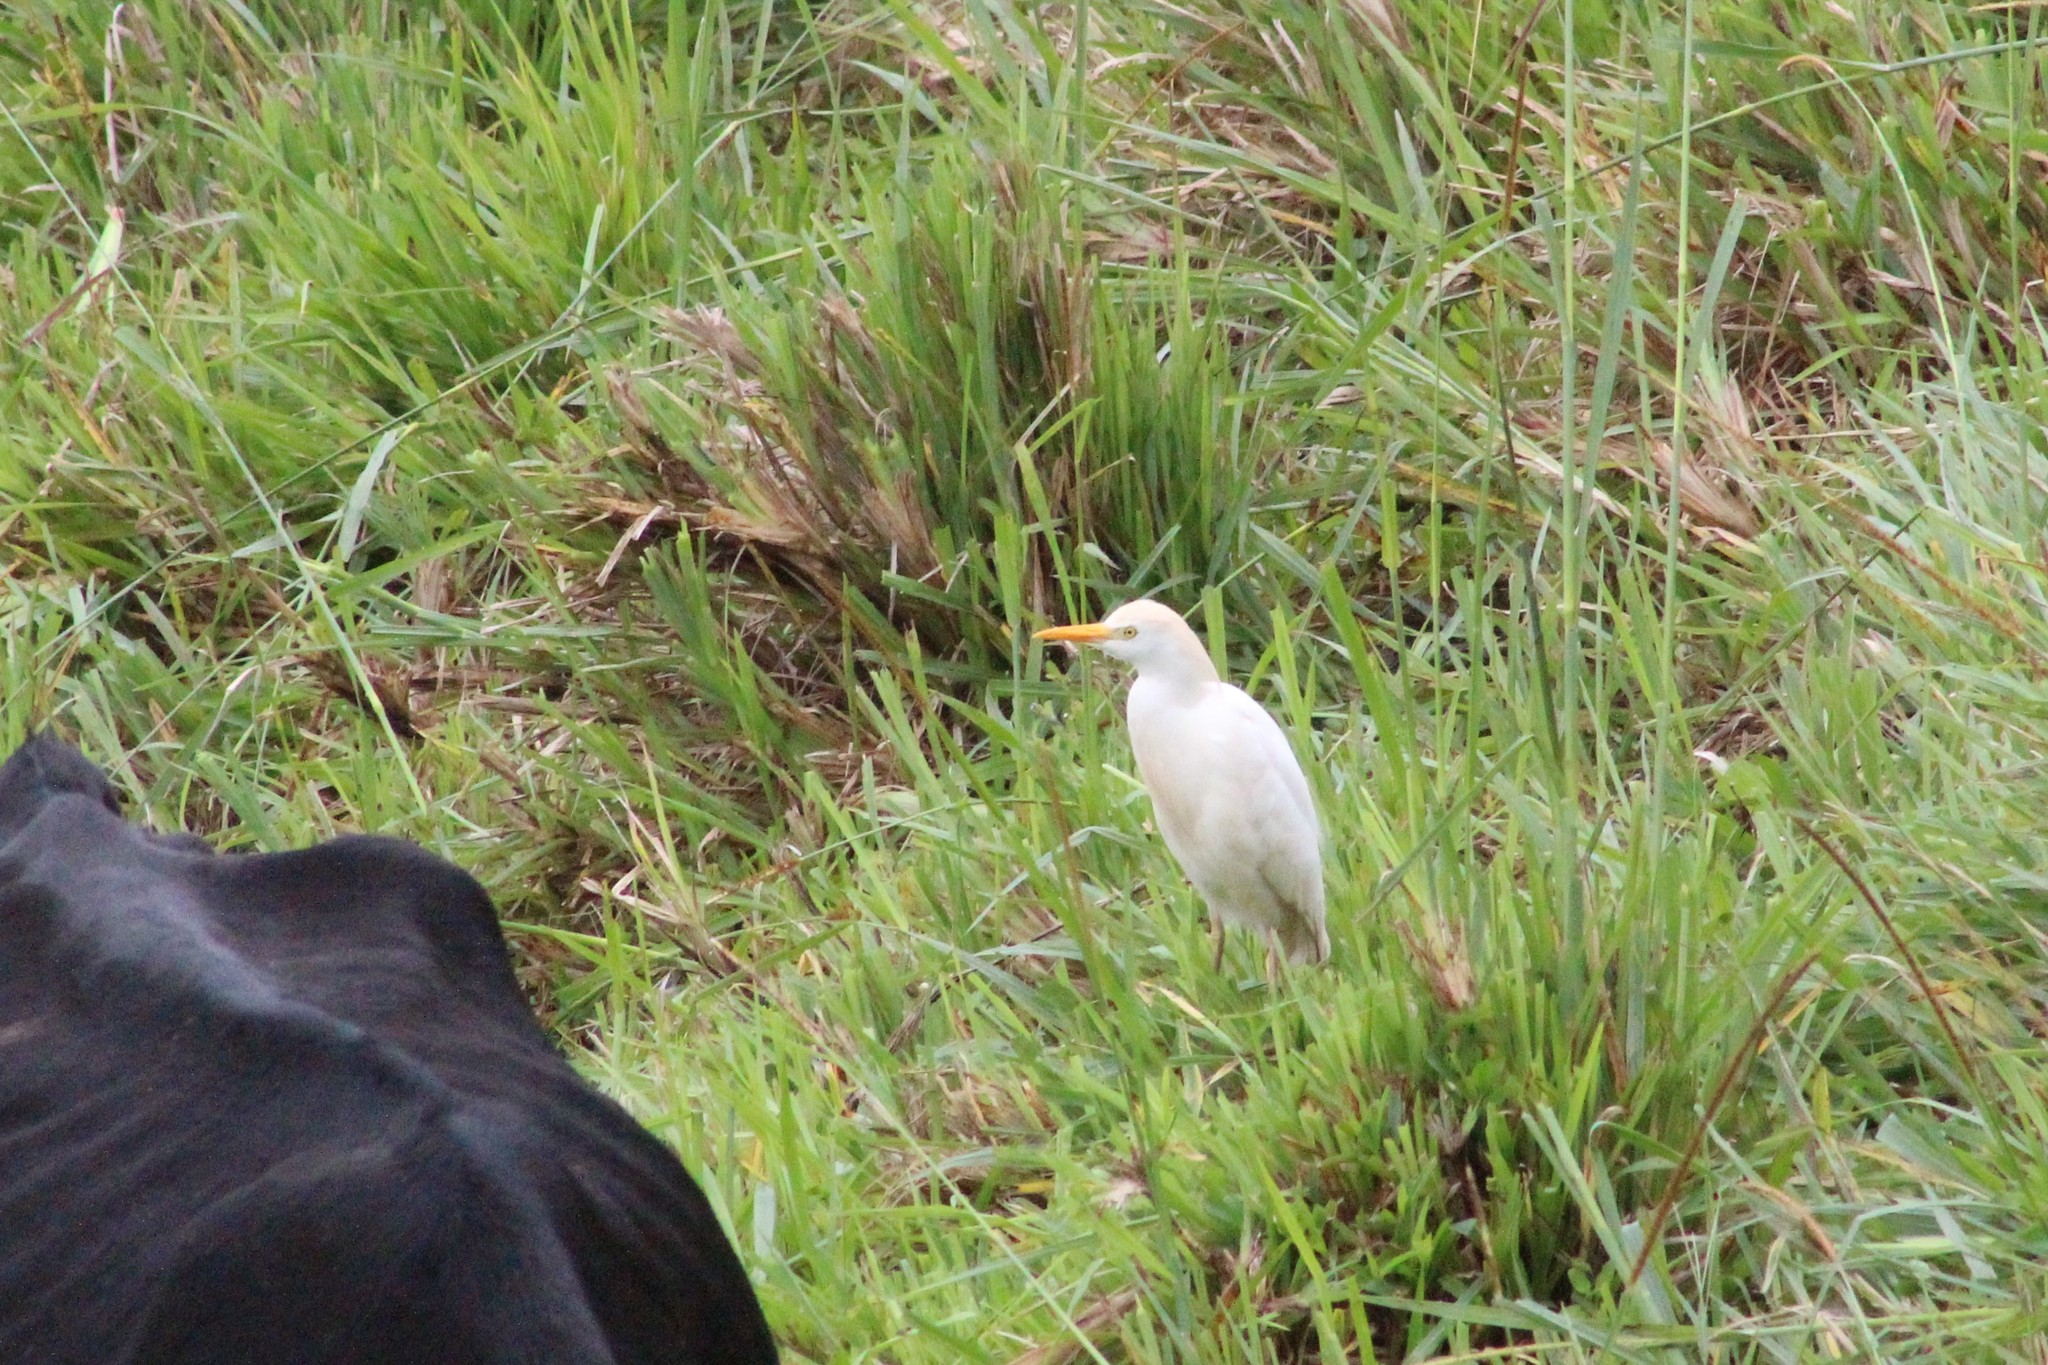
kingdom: Animalia
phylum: Chordata
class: Aves
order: Pelecaniformes
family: Ardeidae
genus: Bubulcus
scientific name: Bubulcus ibis
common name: Cattle egret
